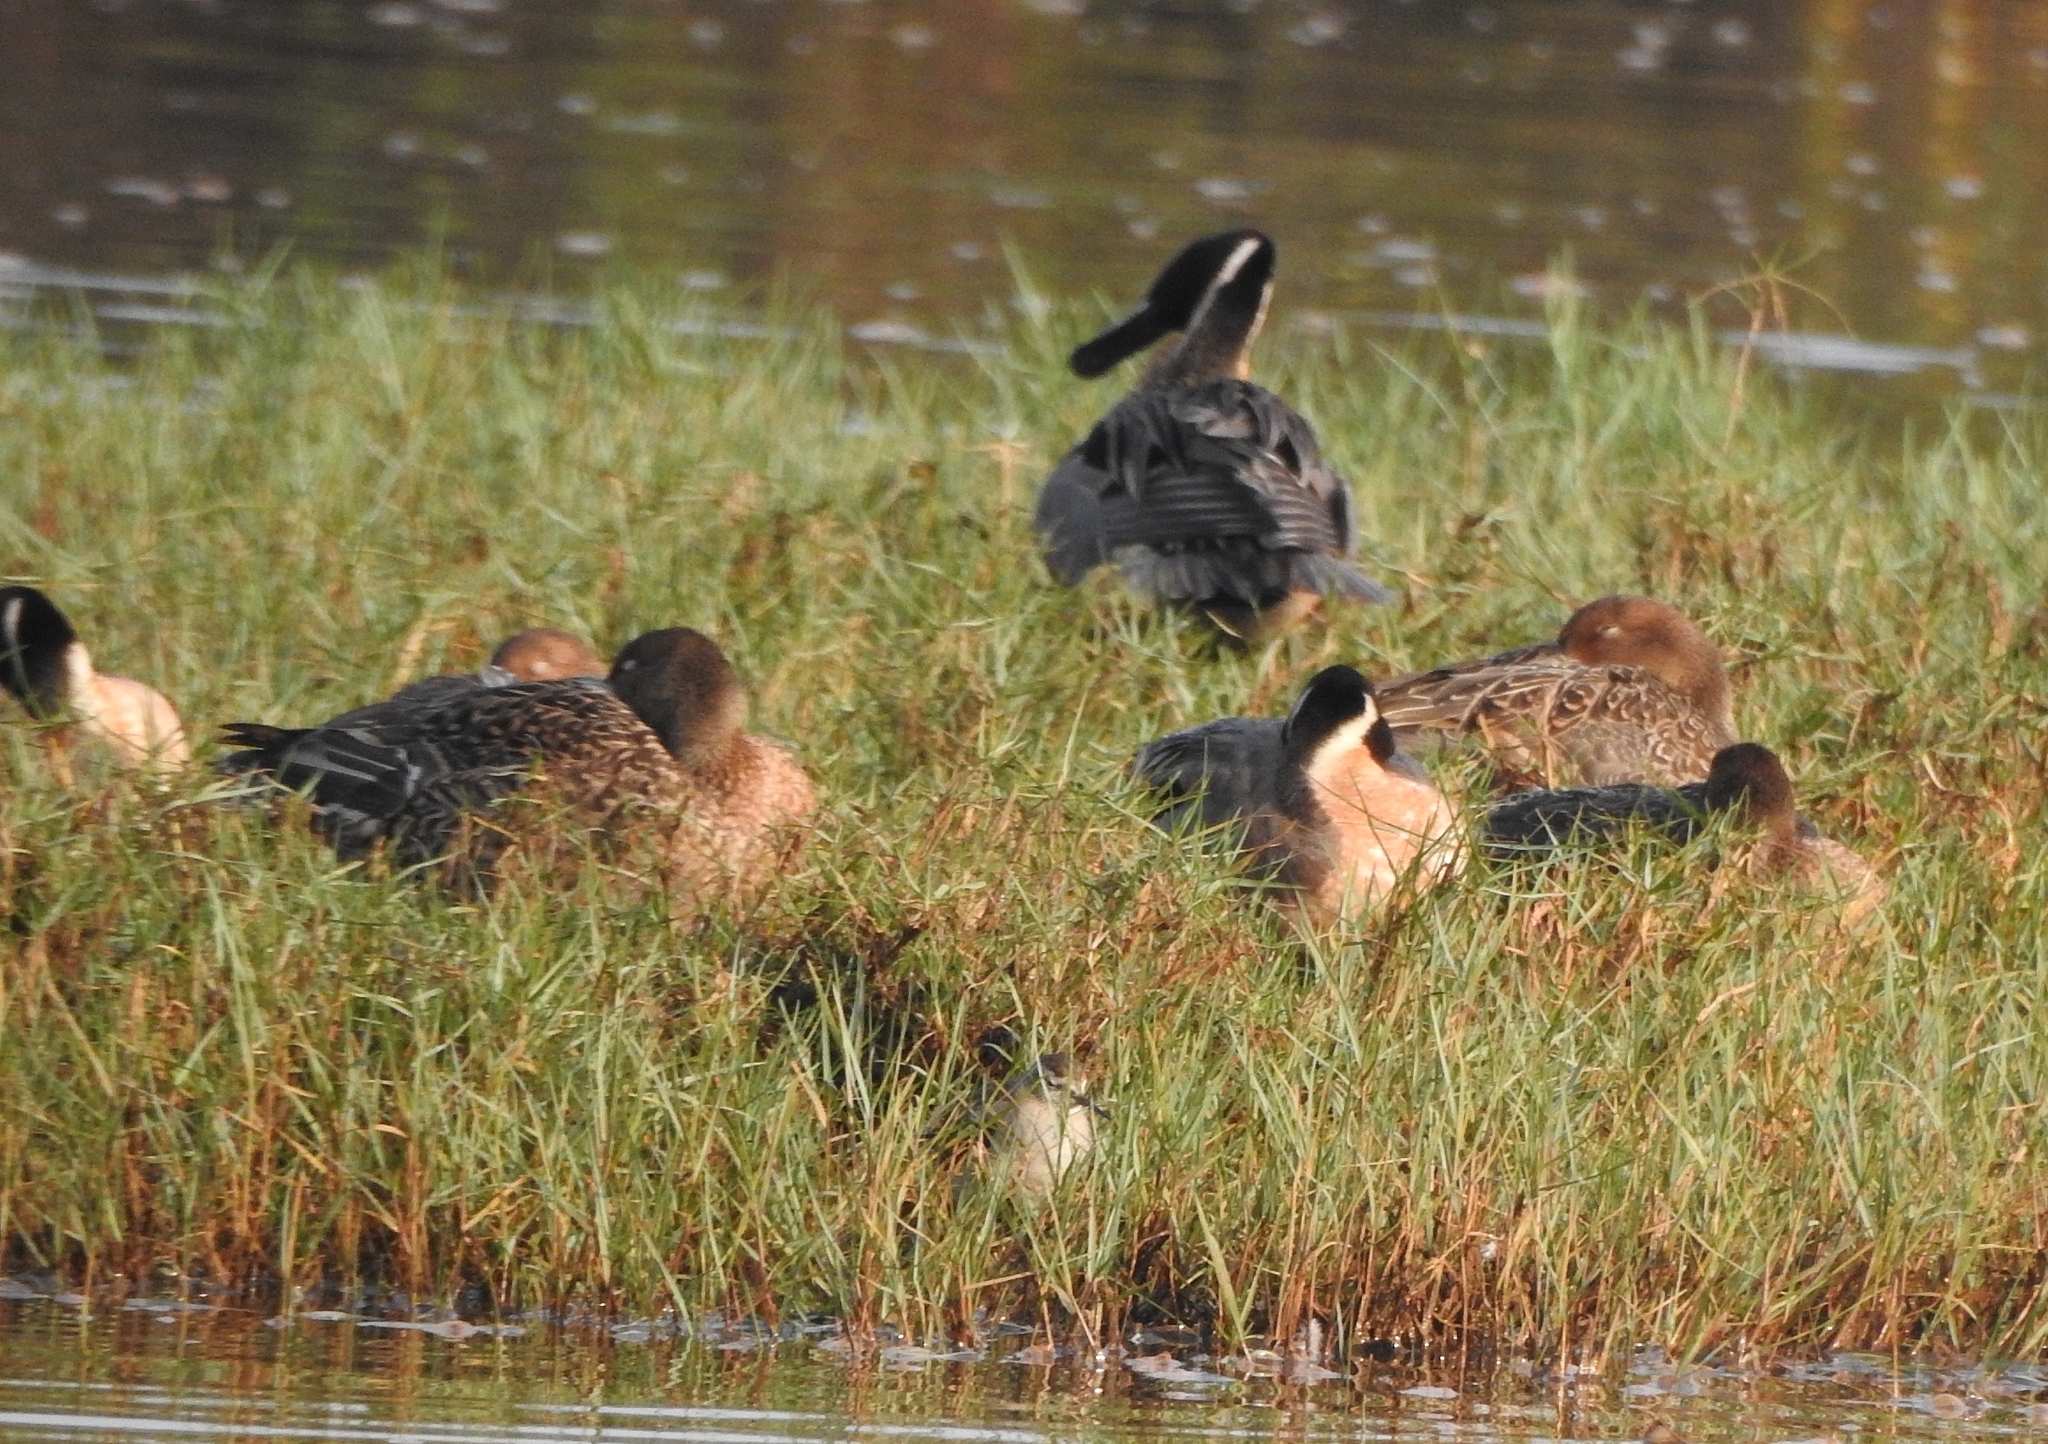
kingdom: Animalia
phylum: Chordata
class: Aves
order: Anseriformes
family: Anatidae
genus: Anas
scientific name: Anas acuta
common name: Northern pintail
